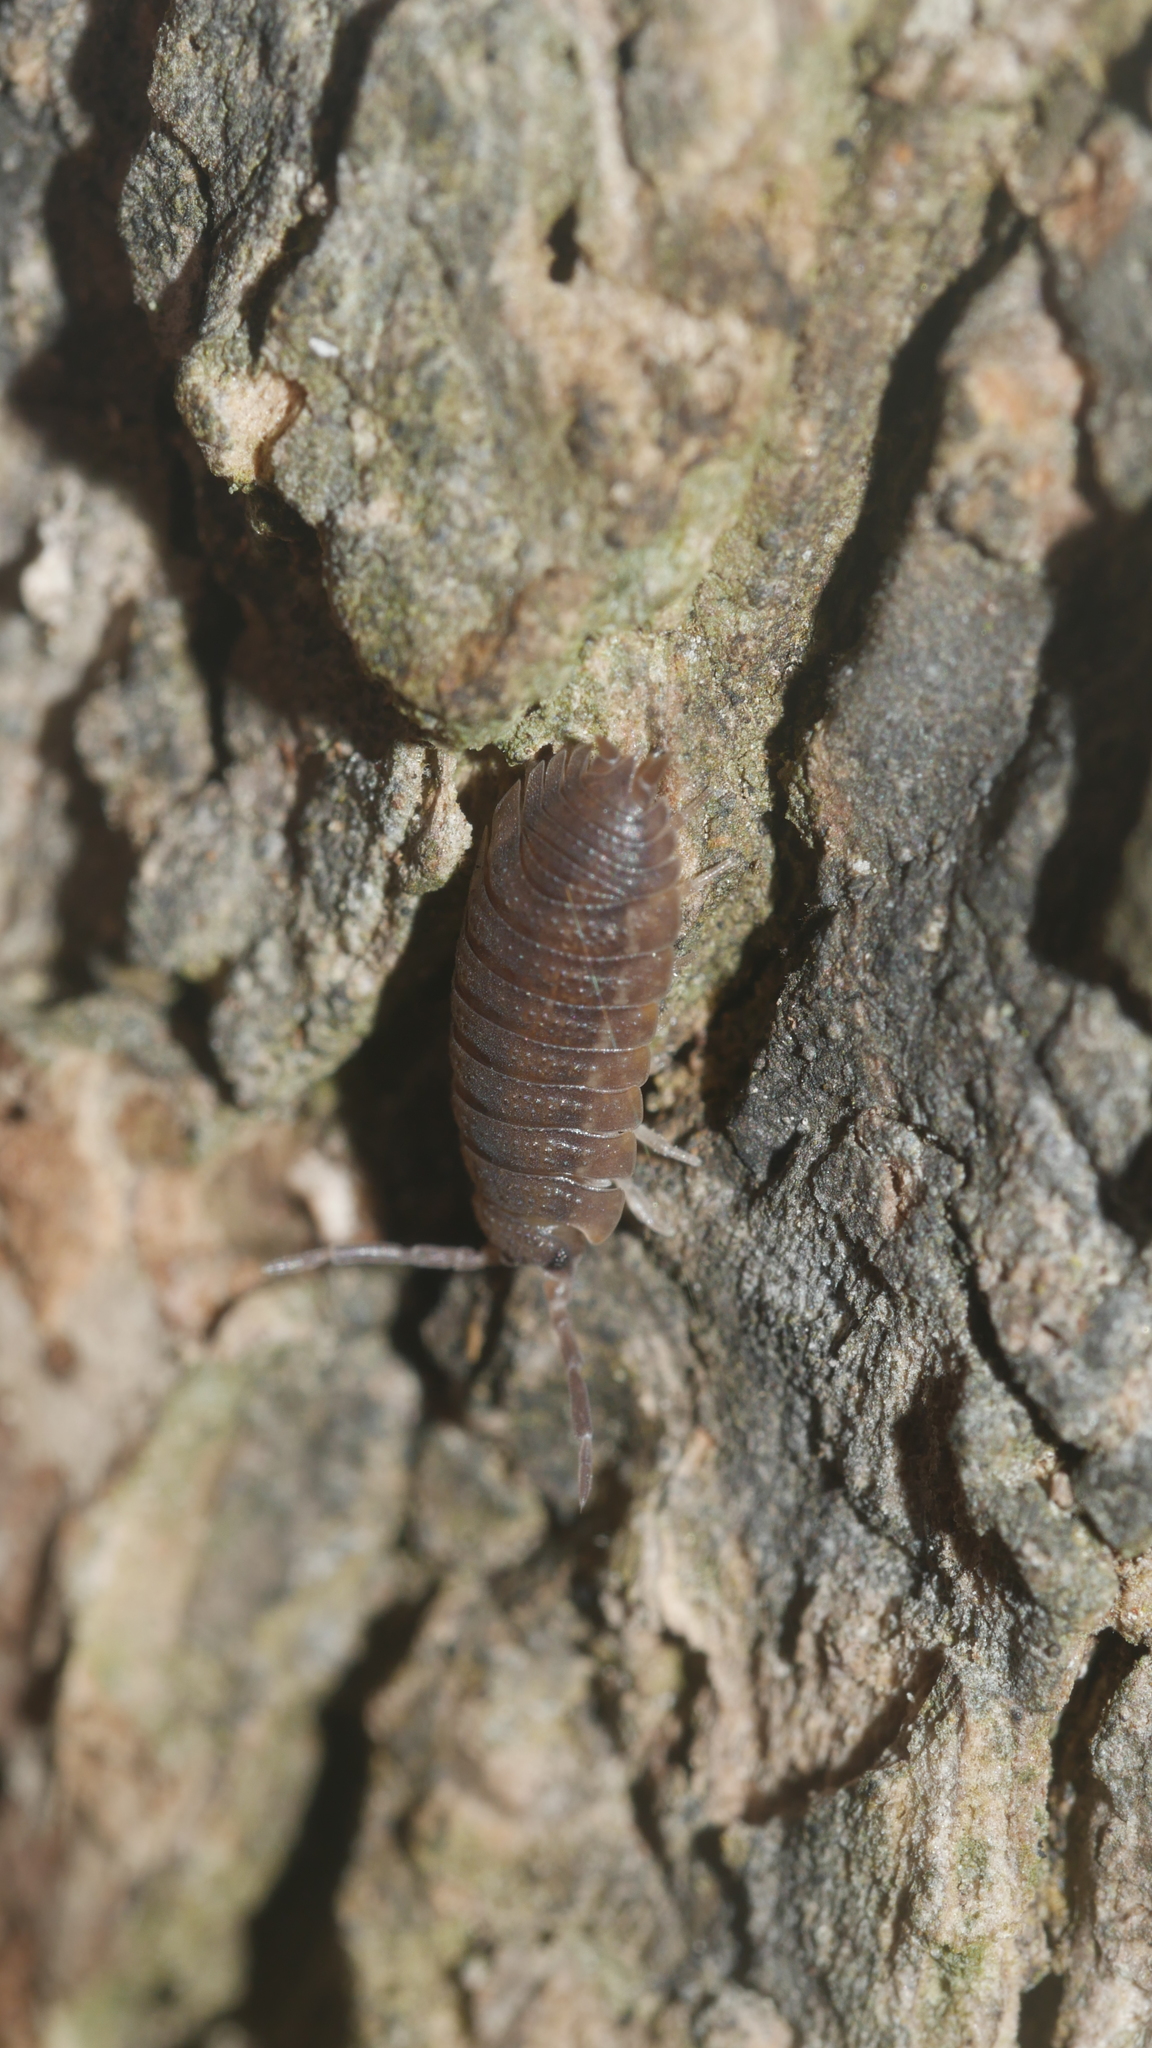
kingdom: Animalia
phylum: Arthropoda
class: Malacostraca
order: Isopoda
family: Porcellionidae
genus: Porcellio
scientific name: Porcellio scaber
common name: Common rough woodlouse
